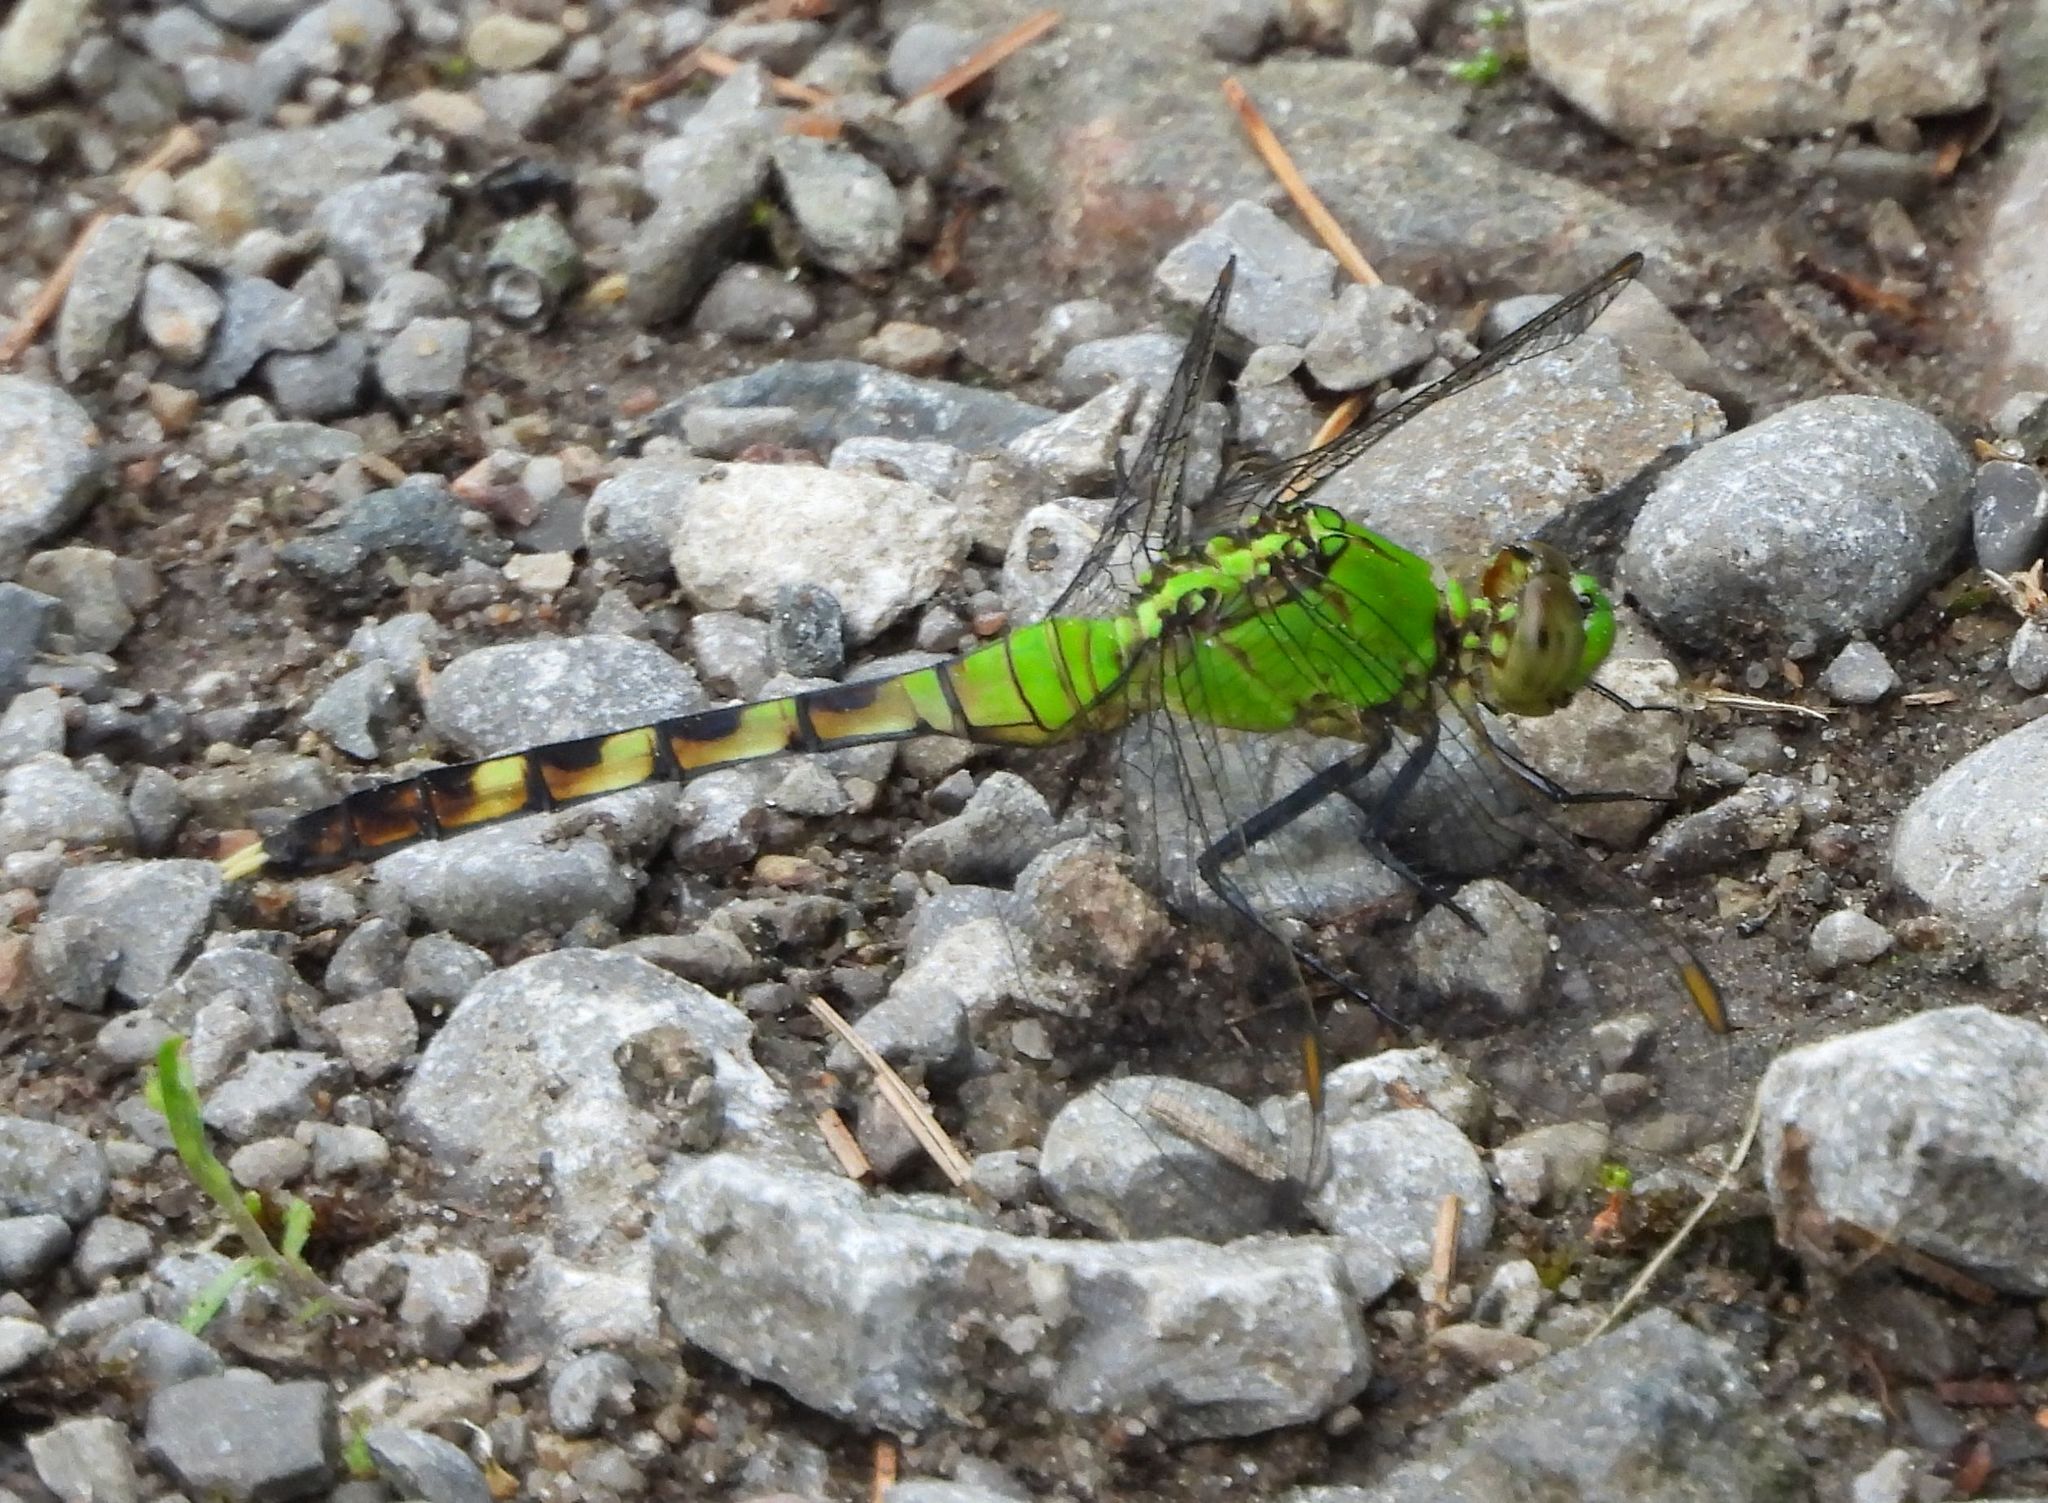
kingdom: Animalia
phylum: Arthropoda
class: Insecta
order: Odonata
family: Libellulidae
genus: Erythemis
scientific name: Erythemis simplicicollis
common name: Eastern pondhawk
